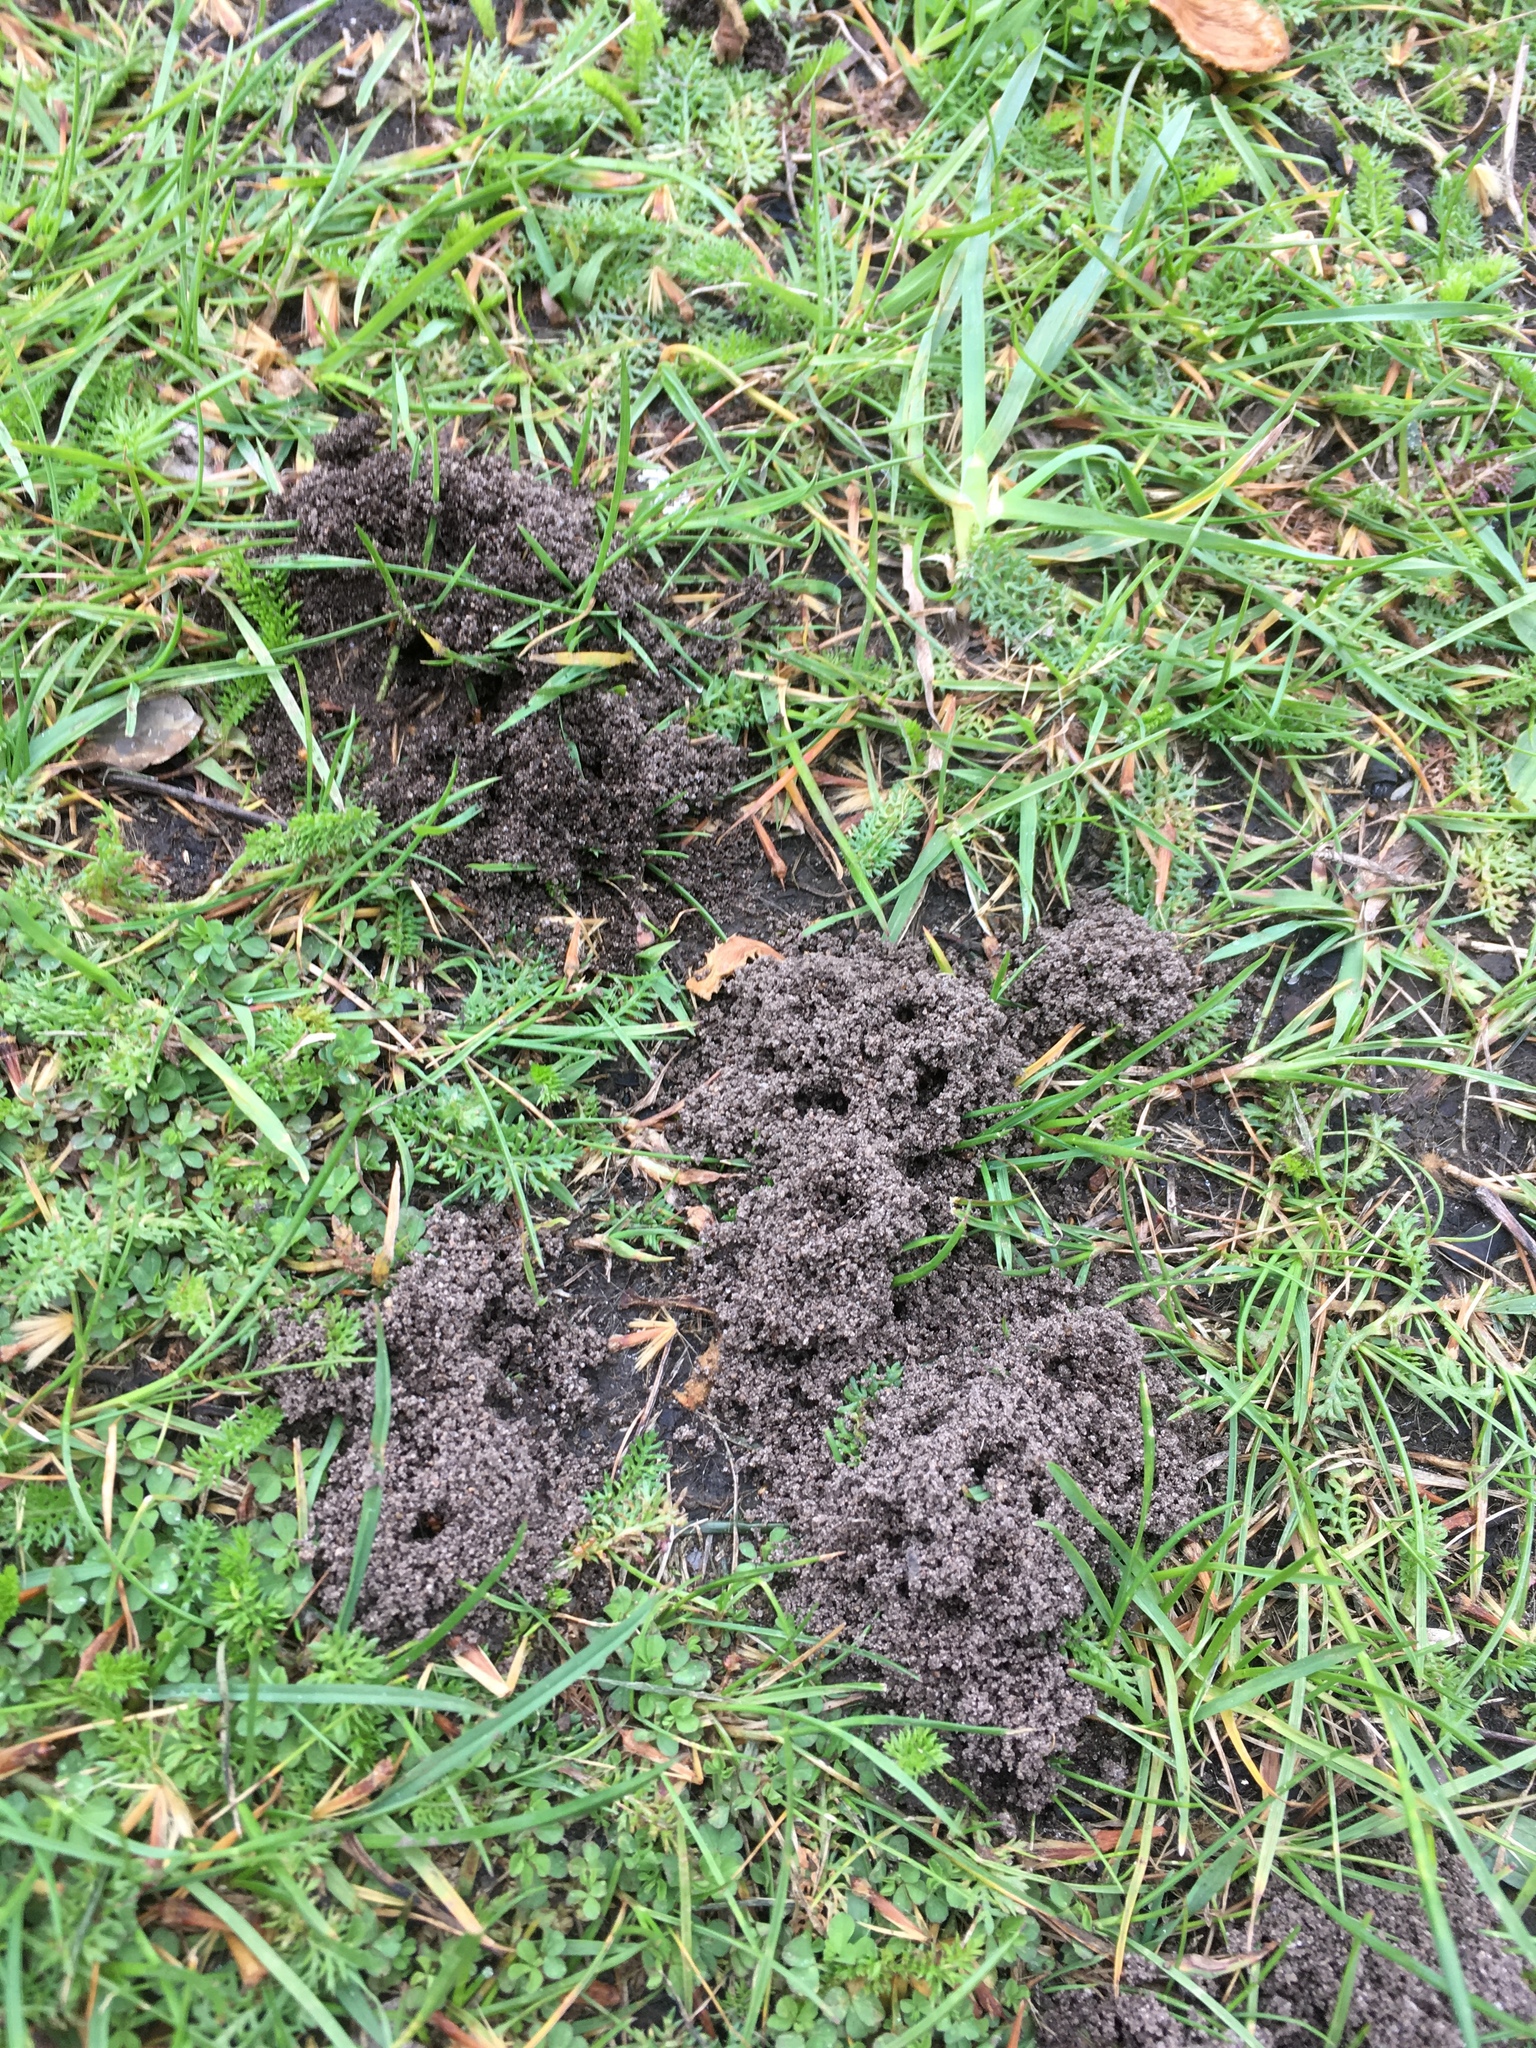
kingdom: Animalia
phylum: Arthropoda
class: Insecta
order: Hymenoptera
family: Formicidae
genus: Lasius
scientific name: Lasius flavus
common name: Blond field ant
